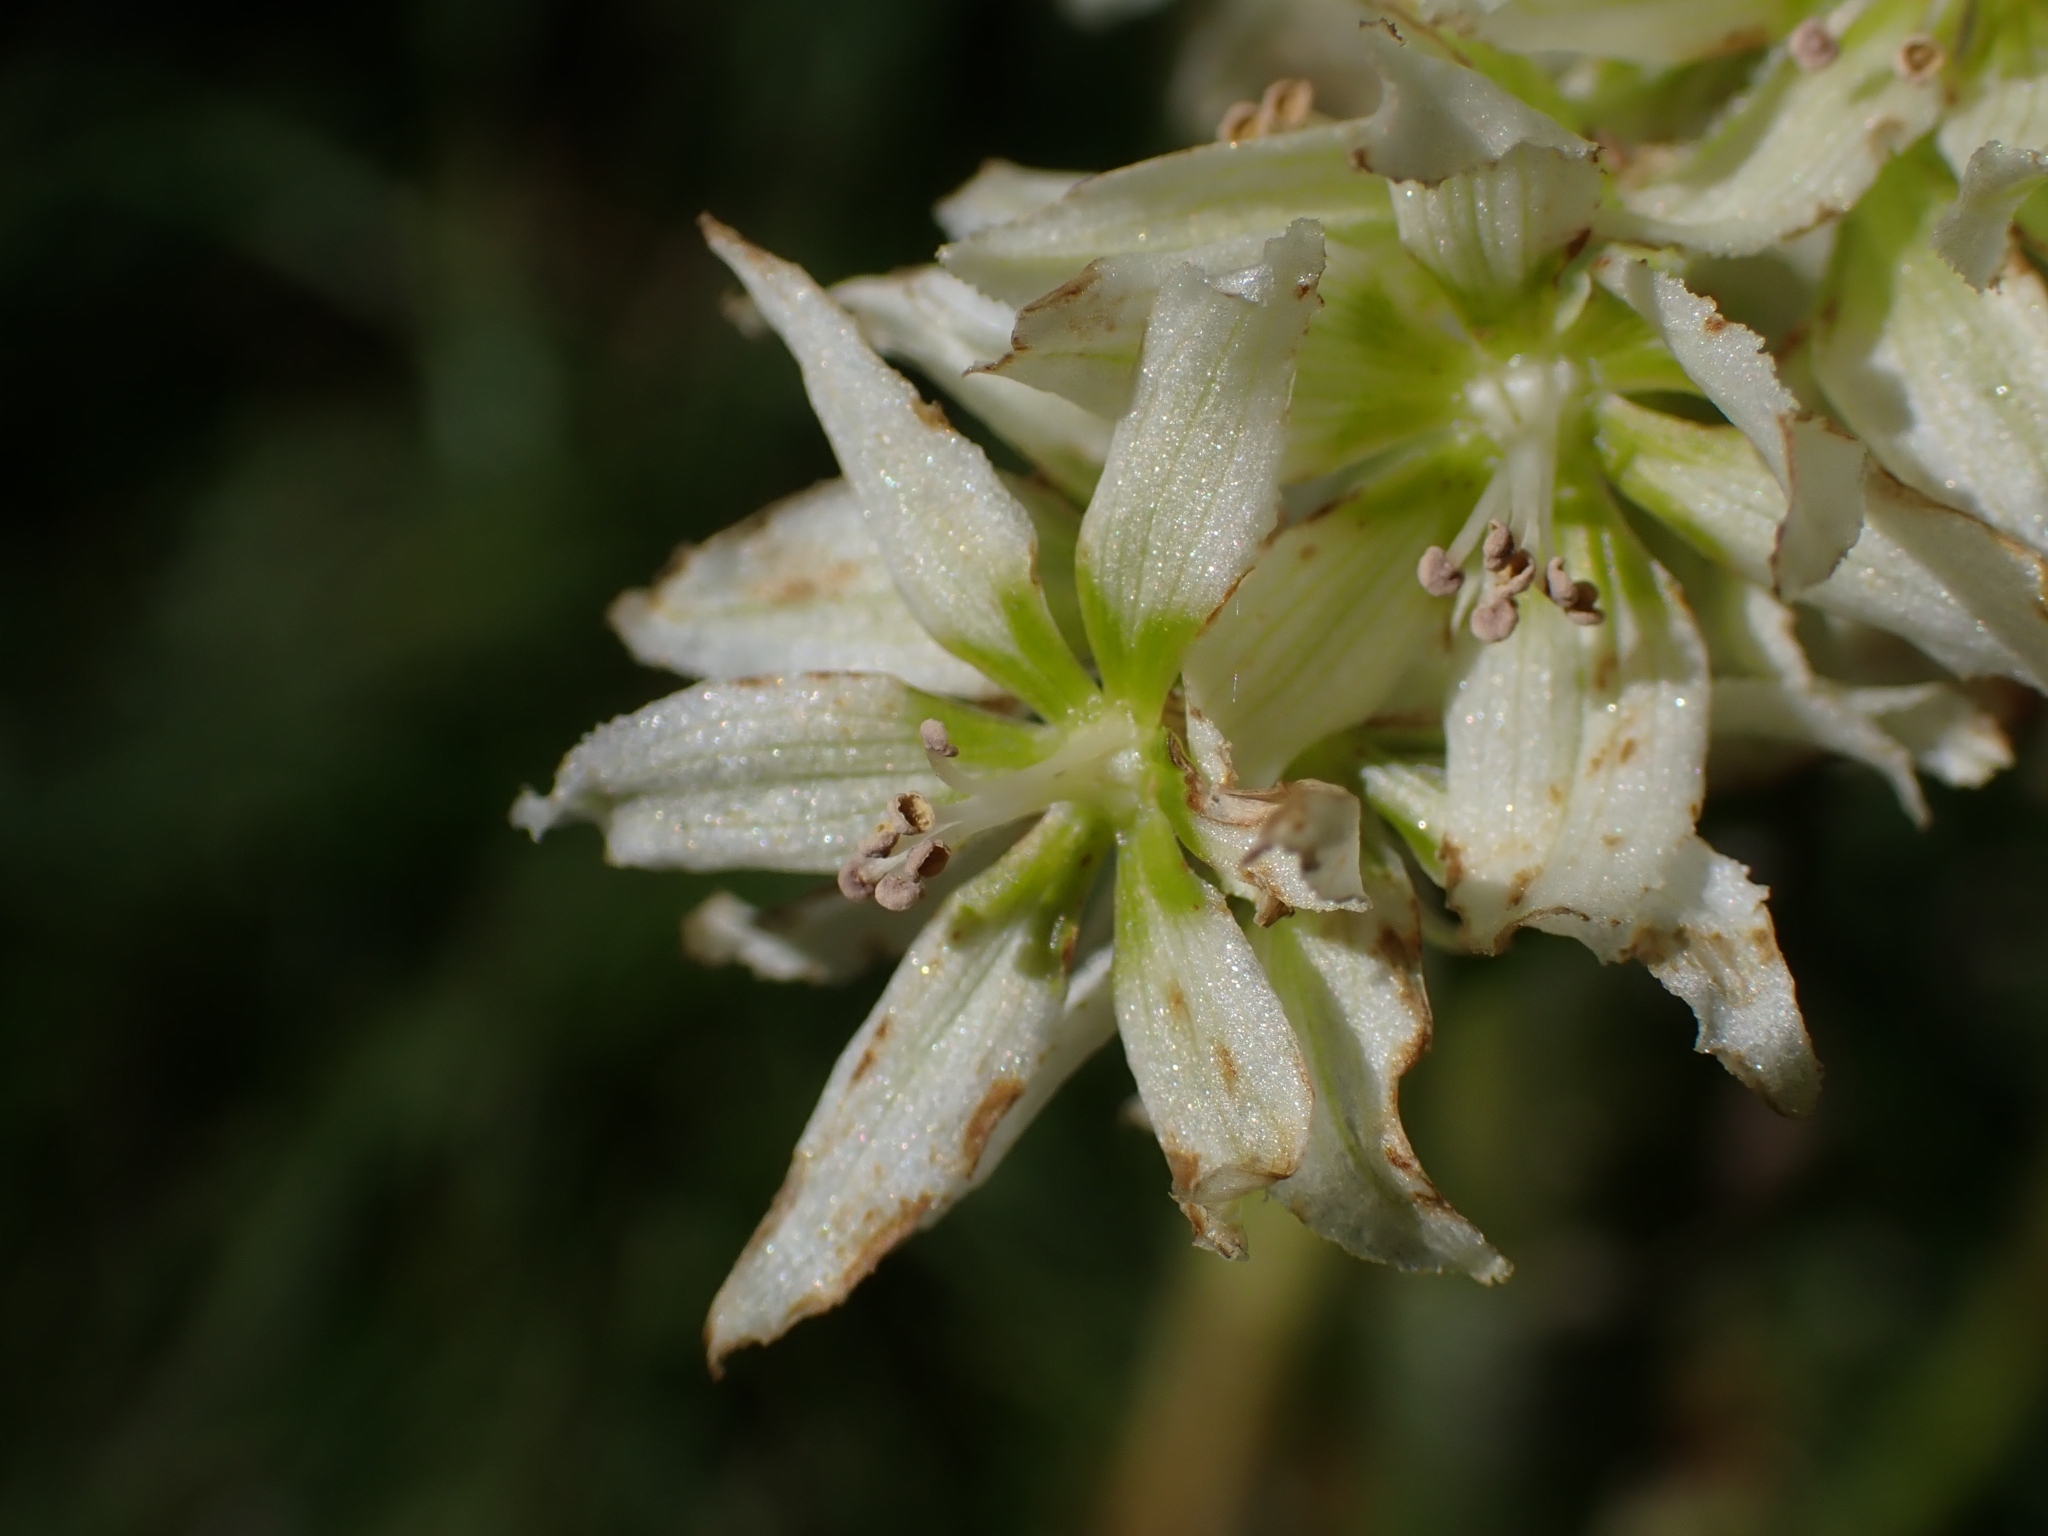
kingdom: Plantae
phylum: Tracheophyta
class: Liliopsida
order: Liliales
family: Melanthiaceae
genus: Veratrum
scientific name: Veratrum album
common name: White veratrum
